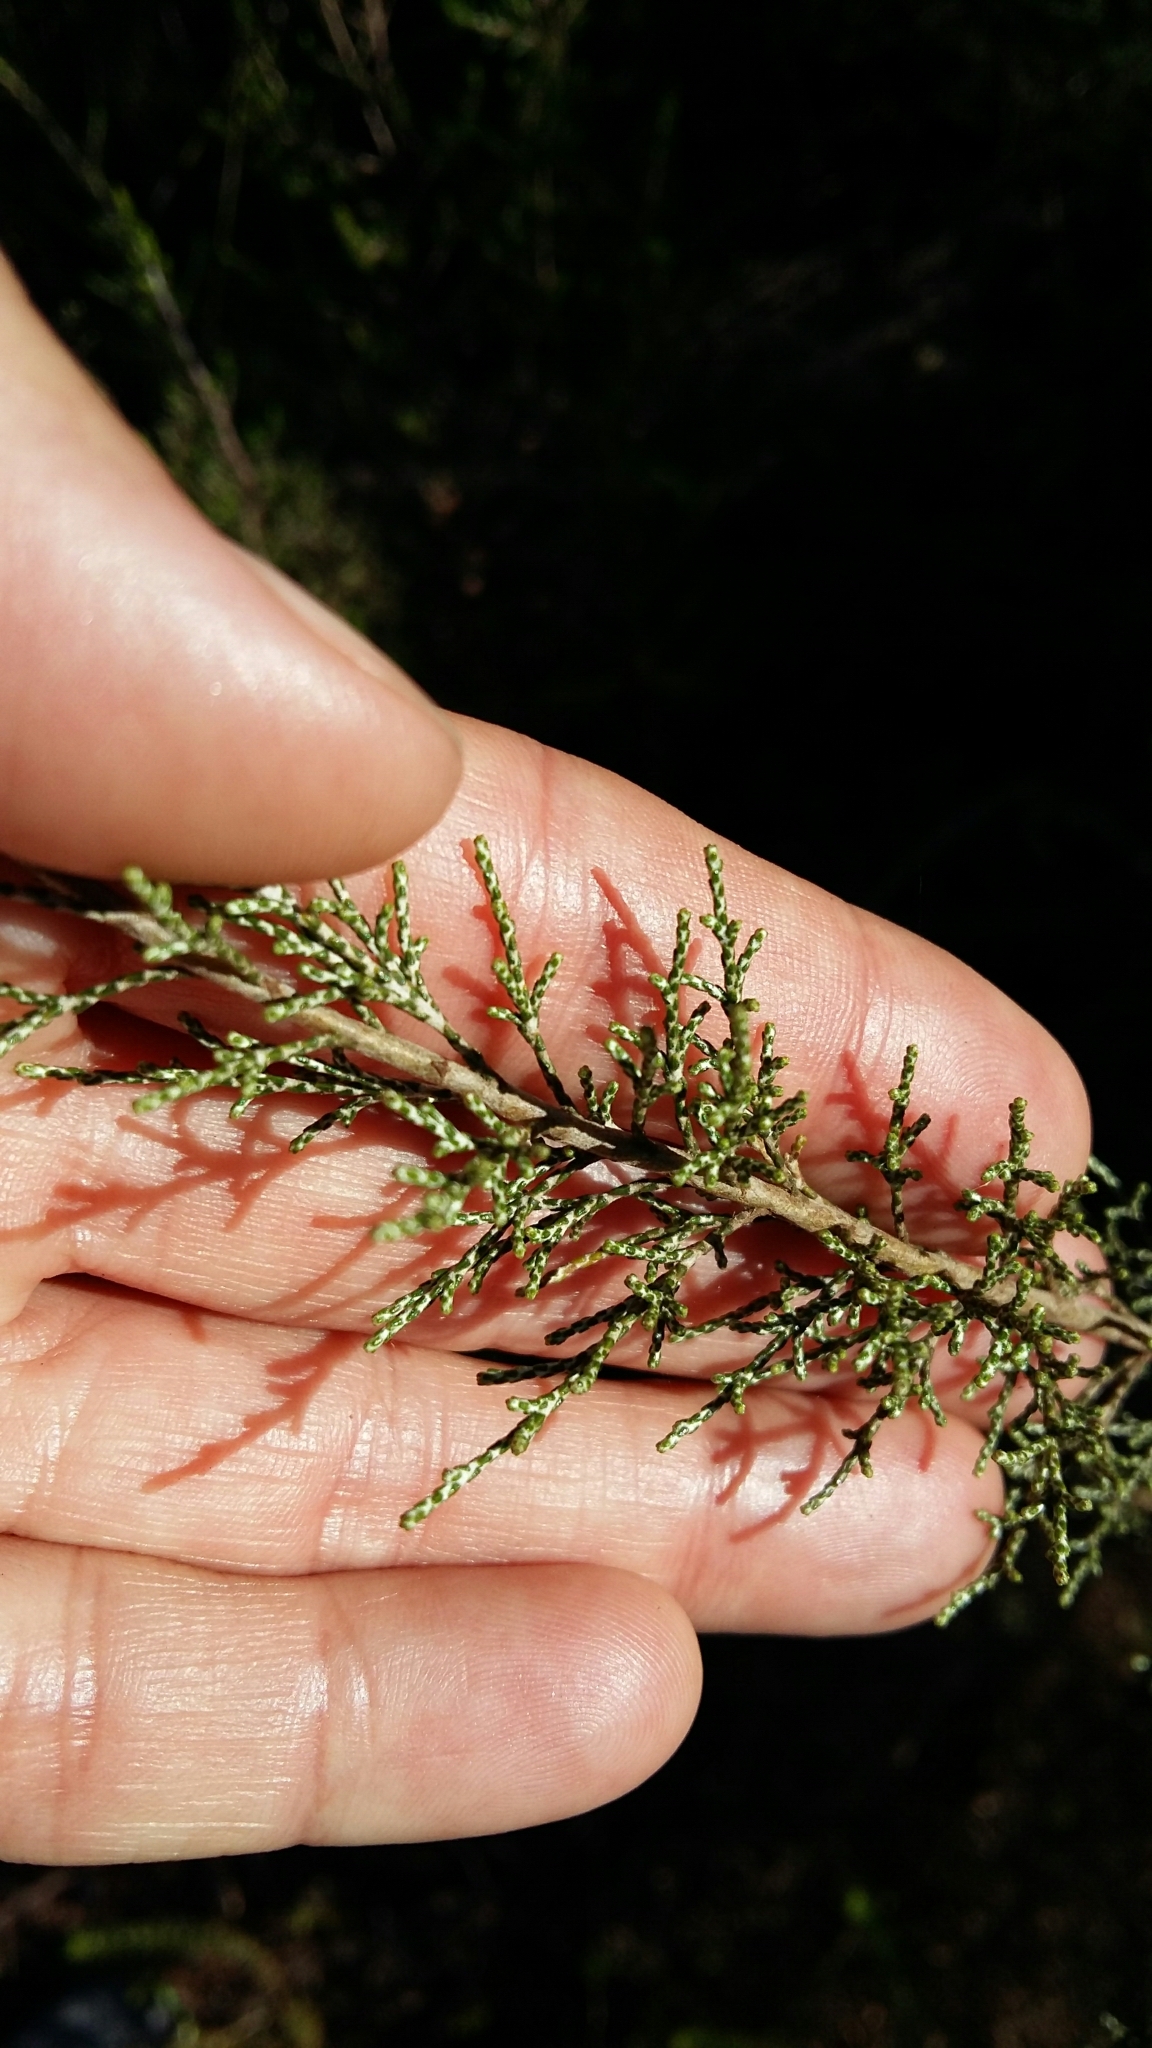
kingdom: Plantae
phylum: Tracheophyta
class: Magnoliopsida
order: Asterales
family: Asteraceae
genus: Dicerothamnus
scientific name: Dicerothamnus rhinocerotis
